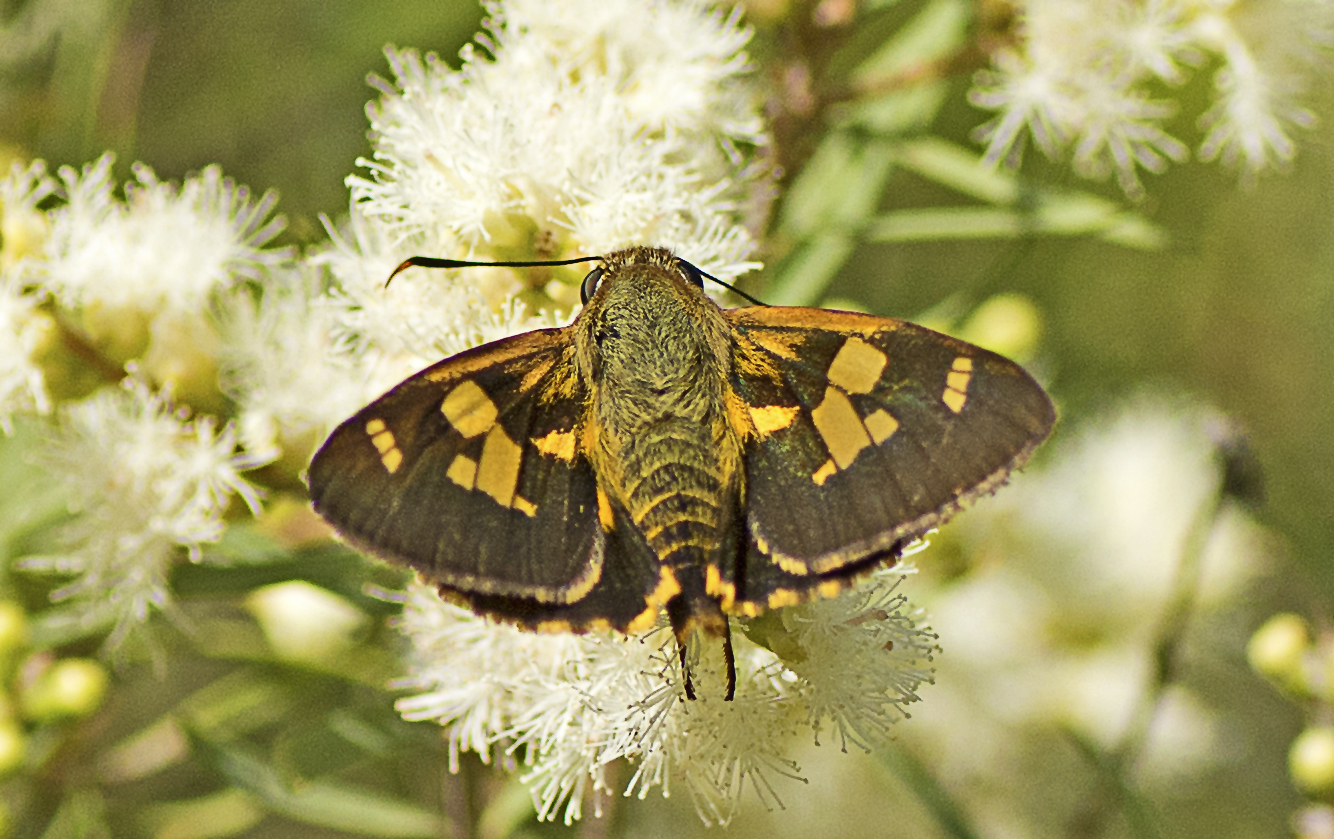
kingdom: Animalia
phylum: Arthropoda
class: Insecta
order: Lepidoptera
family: Hesperiidae
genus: Trapezites
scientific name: Trapezites symmomus
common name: Splendid ochre
